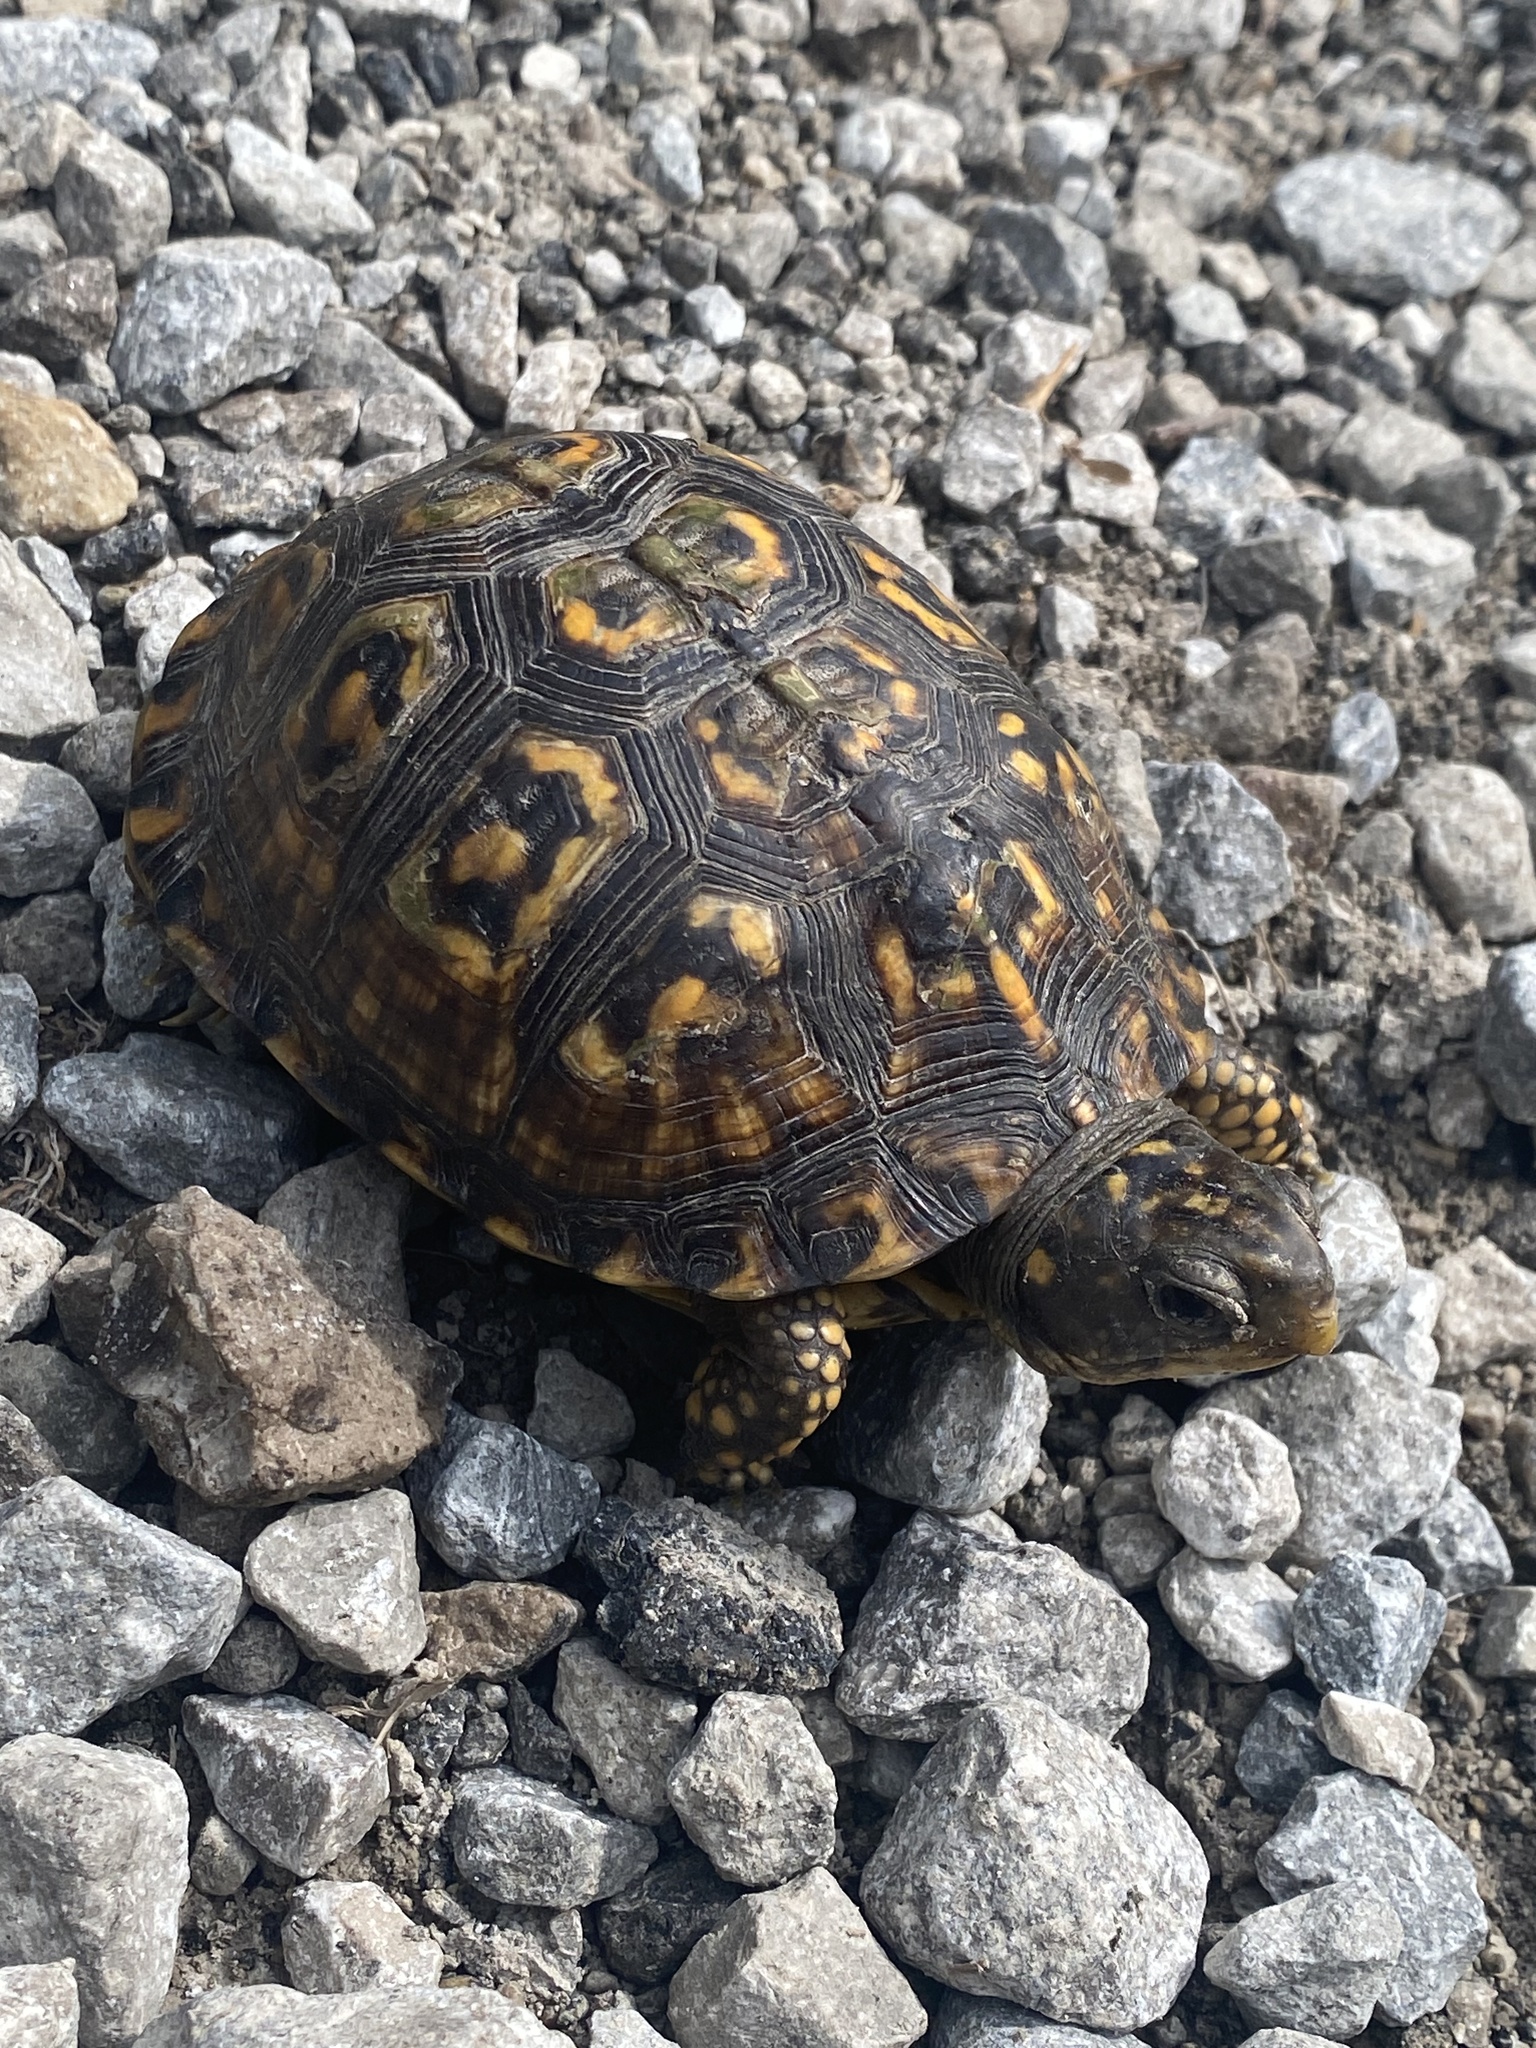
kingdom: Animalia
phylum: Chordata
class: Testudines
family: Emydidae
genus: Terrapene
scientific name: Terrapene carolina
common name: Common box turtle
